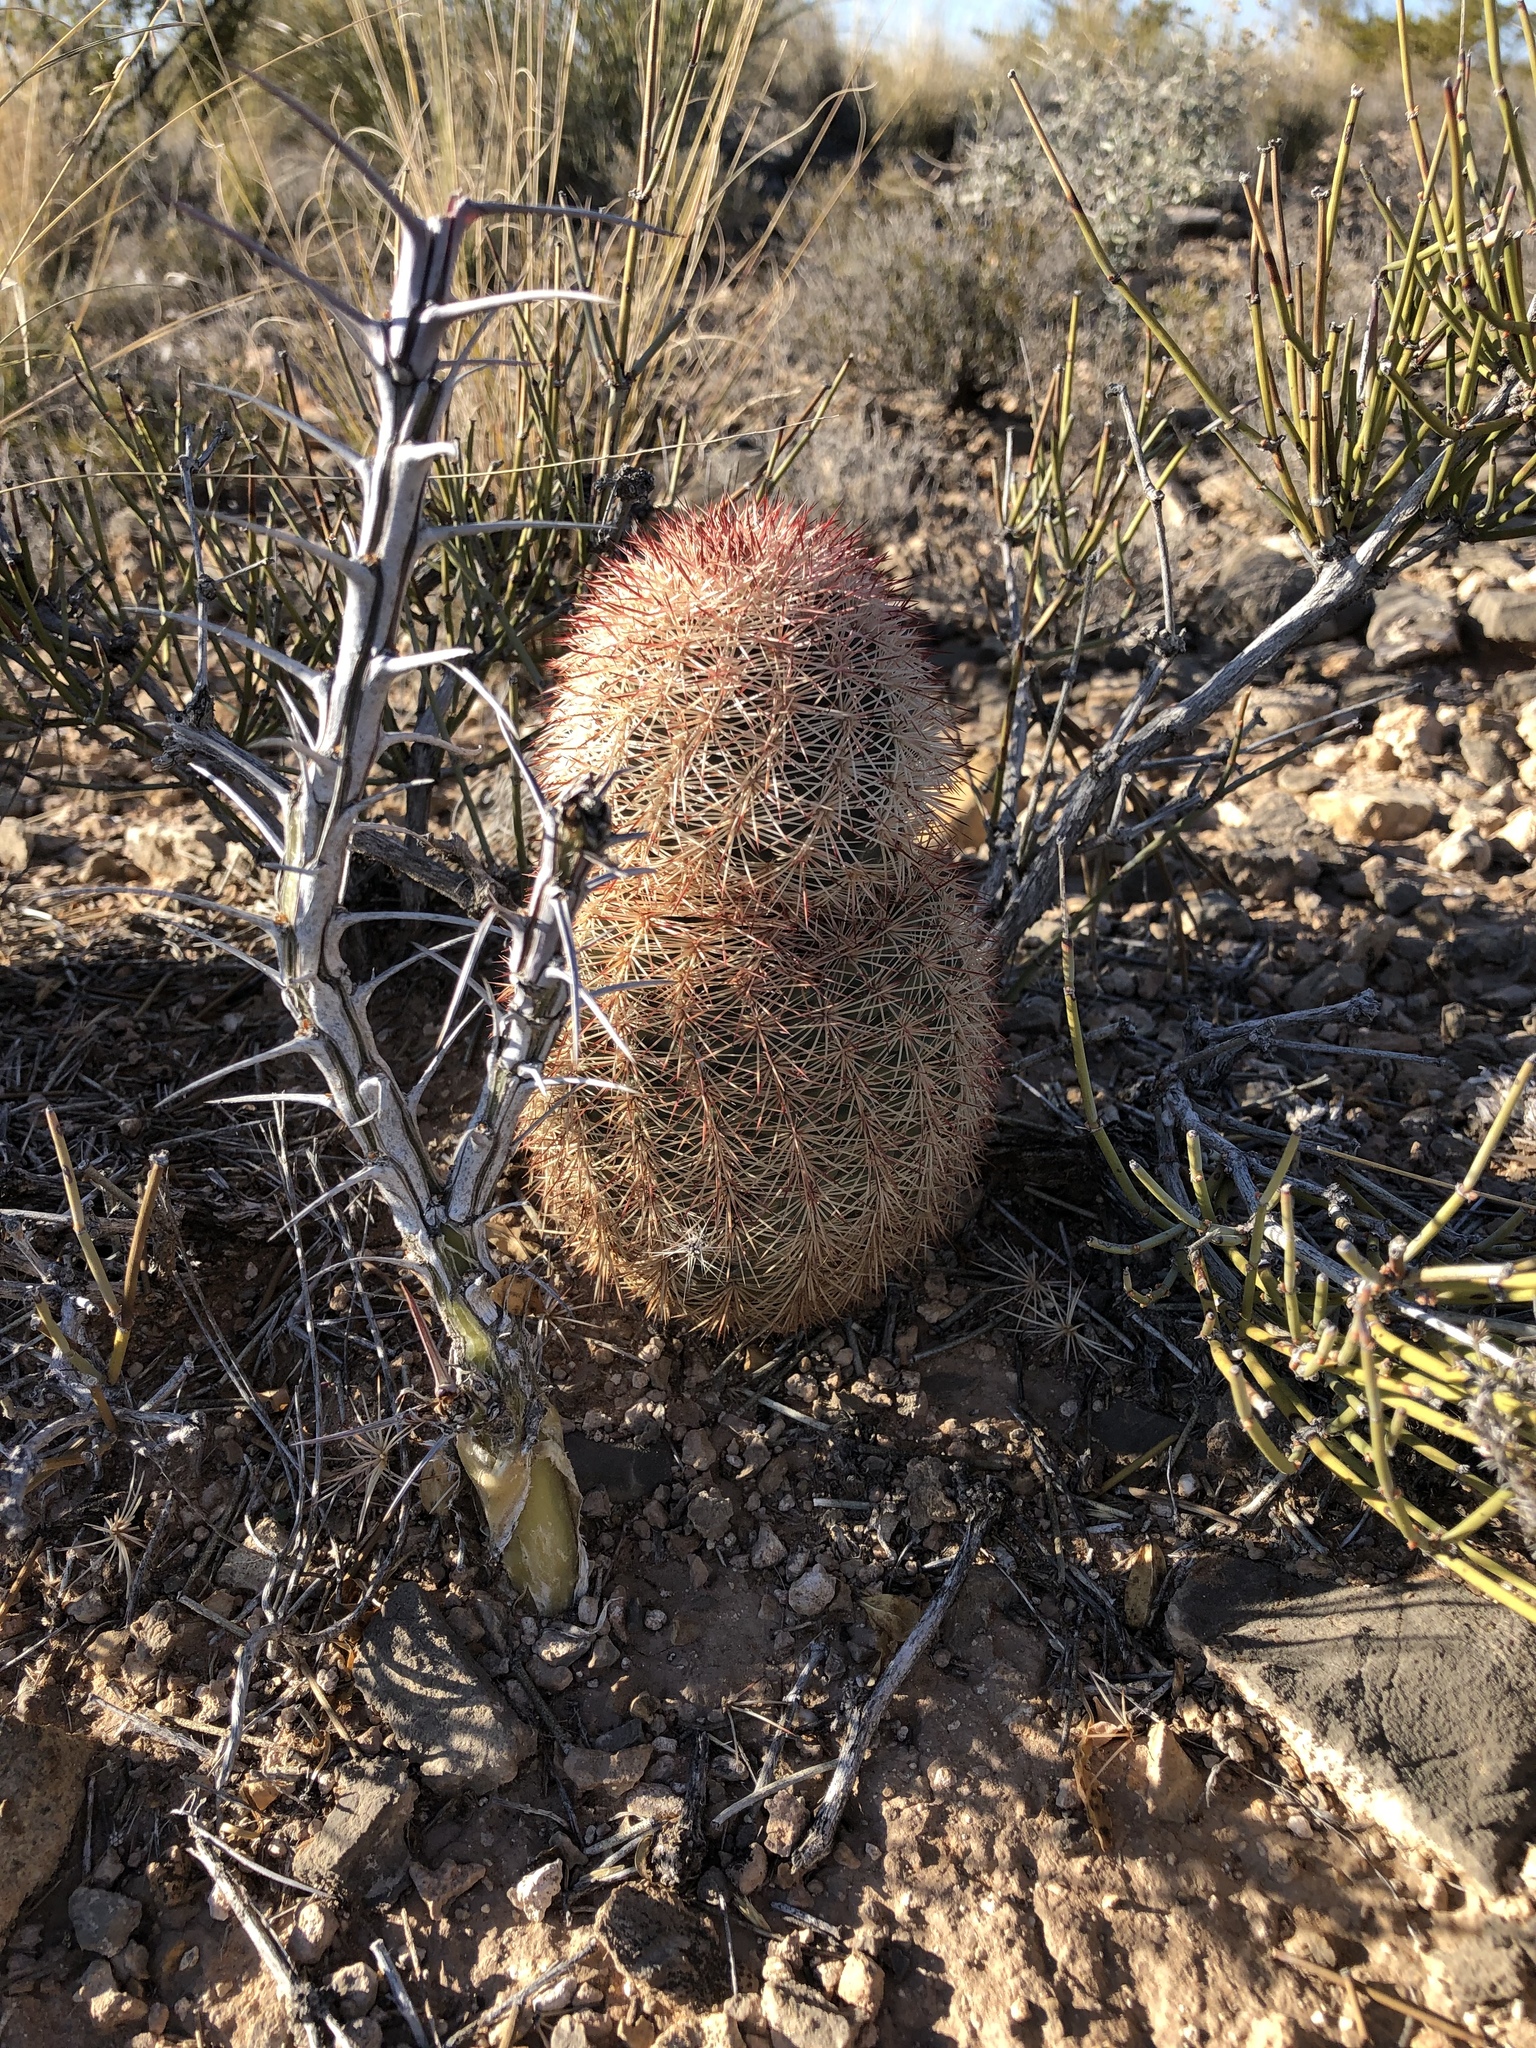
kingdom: Plantae
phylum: Tracheophyta
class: Magnoliopsida
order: Caryophyllales
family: Cactaceae
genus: Echinocereus
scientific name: Echinocereus dasyacanthus
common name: Spiny hedgehog cactus
